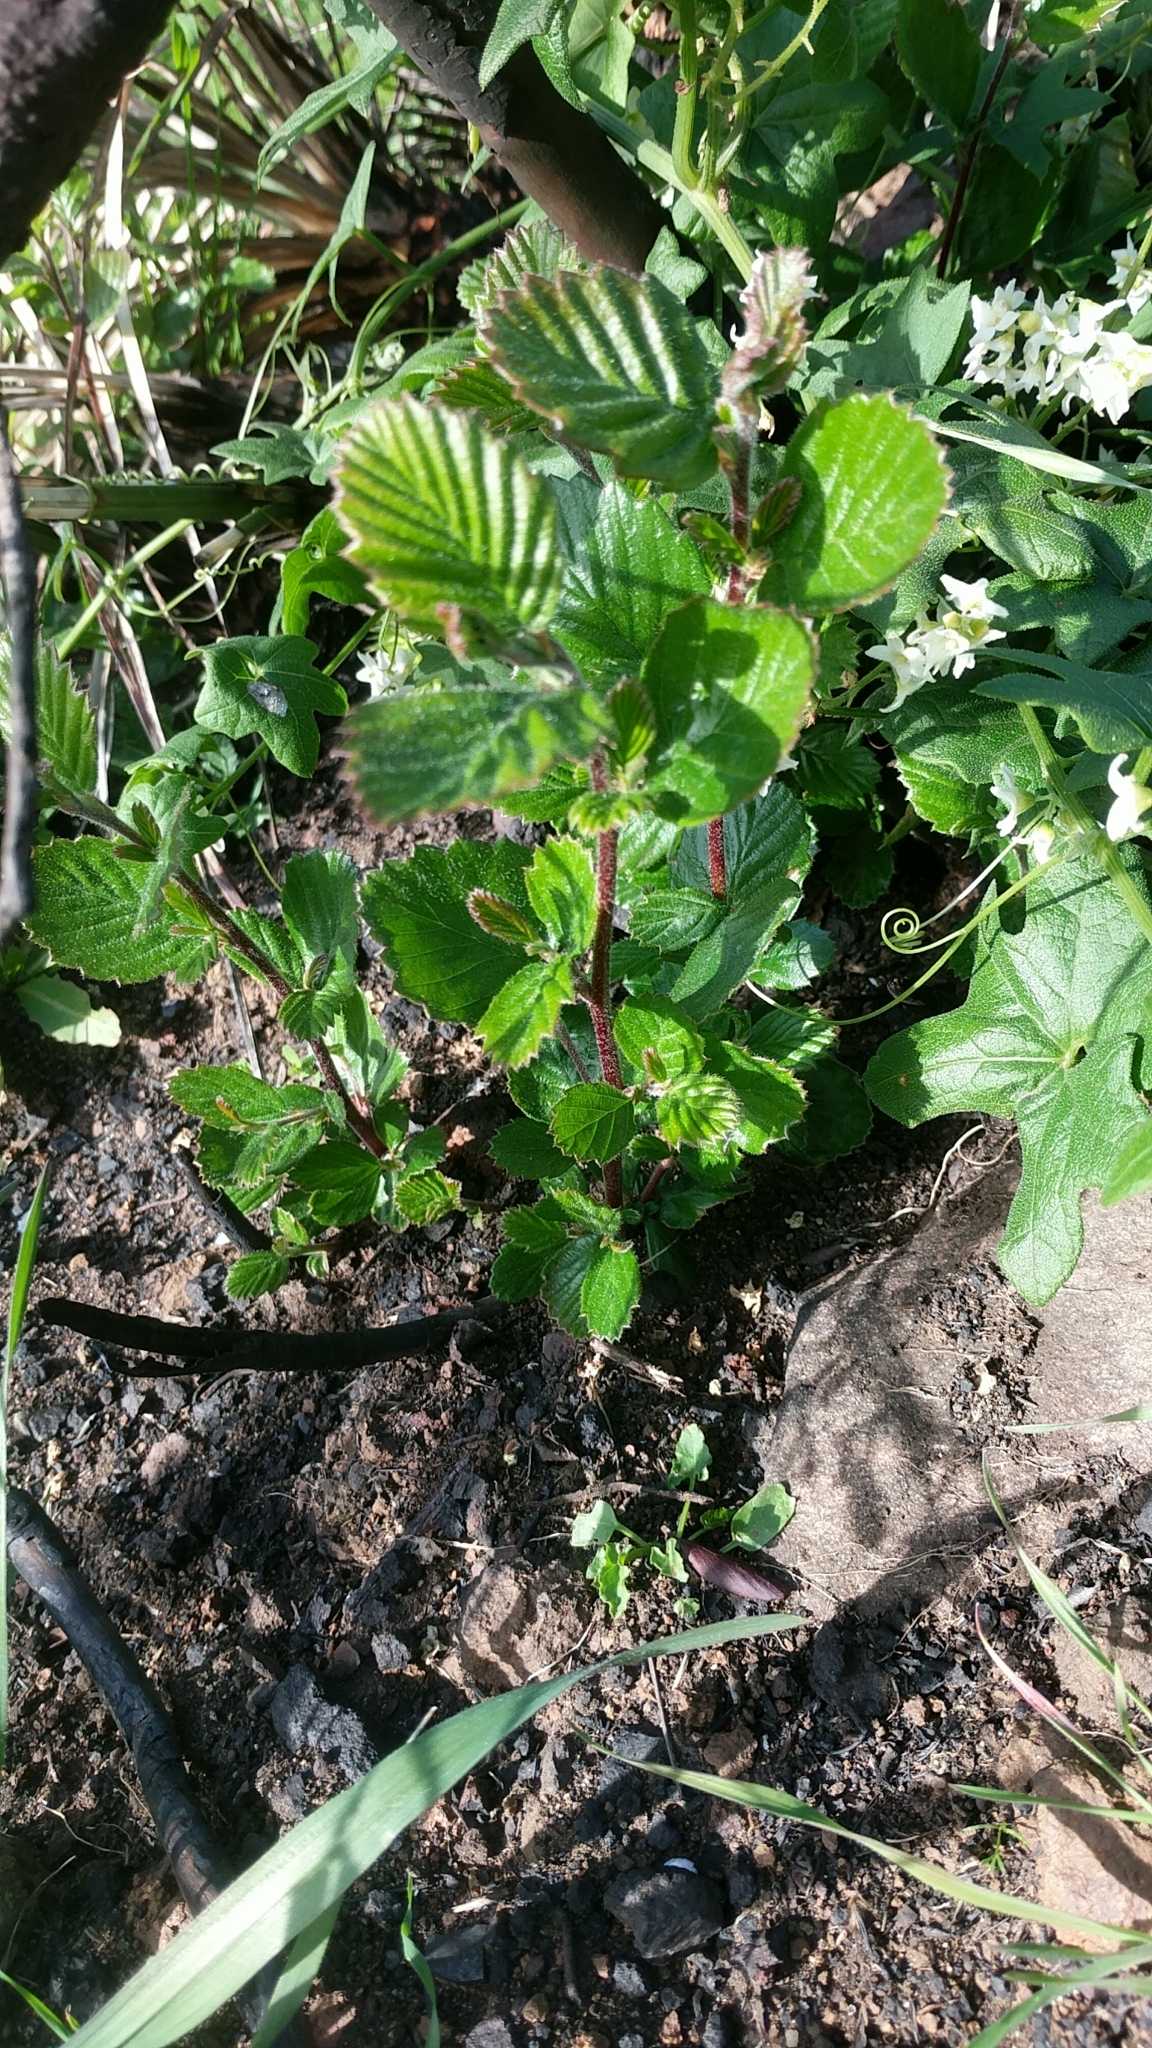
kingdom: Plantae
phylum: Tracheophyta
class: Magnoliopsida
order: Rosales
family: Rosaceae
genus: Cercocarpus
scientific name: Cercocarpus betuloides
